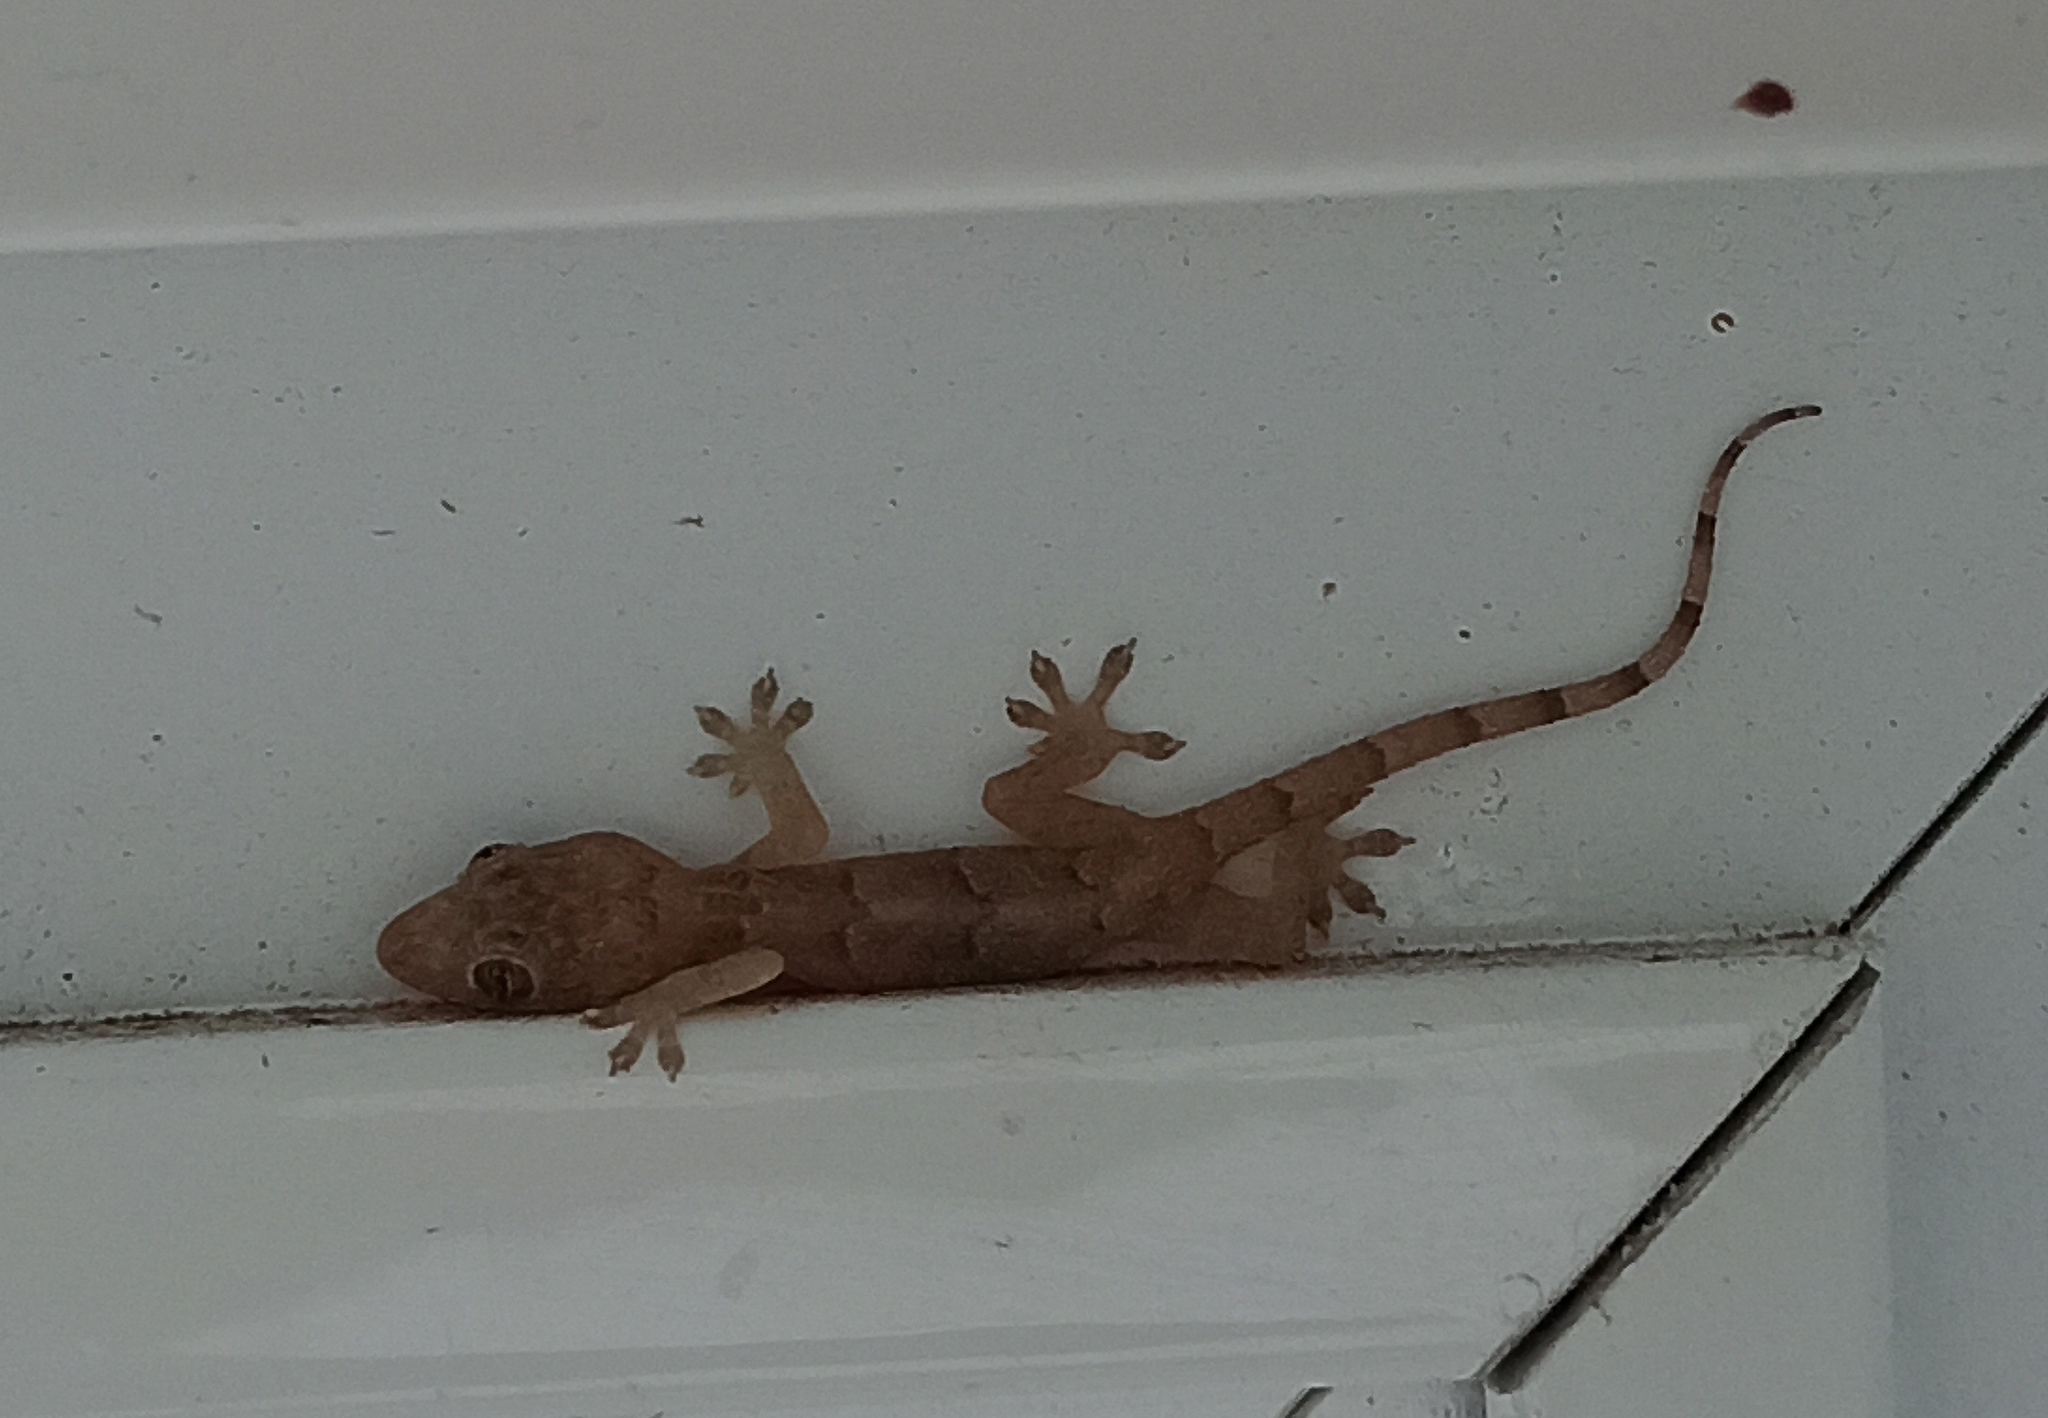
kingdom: Animalia
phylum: Chordata
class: Squamata
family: Gekkonidae
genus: Hemidactylus
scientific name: Hemidactylus mabouia
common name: House gecko
